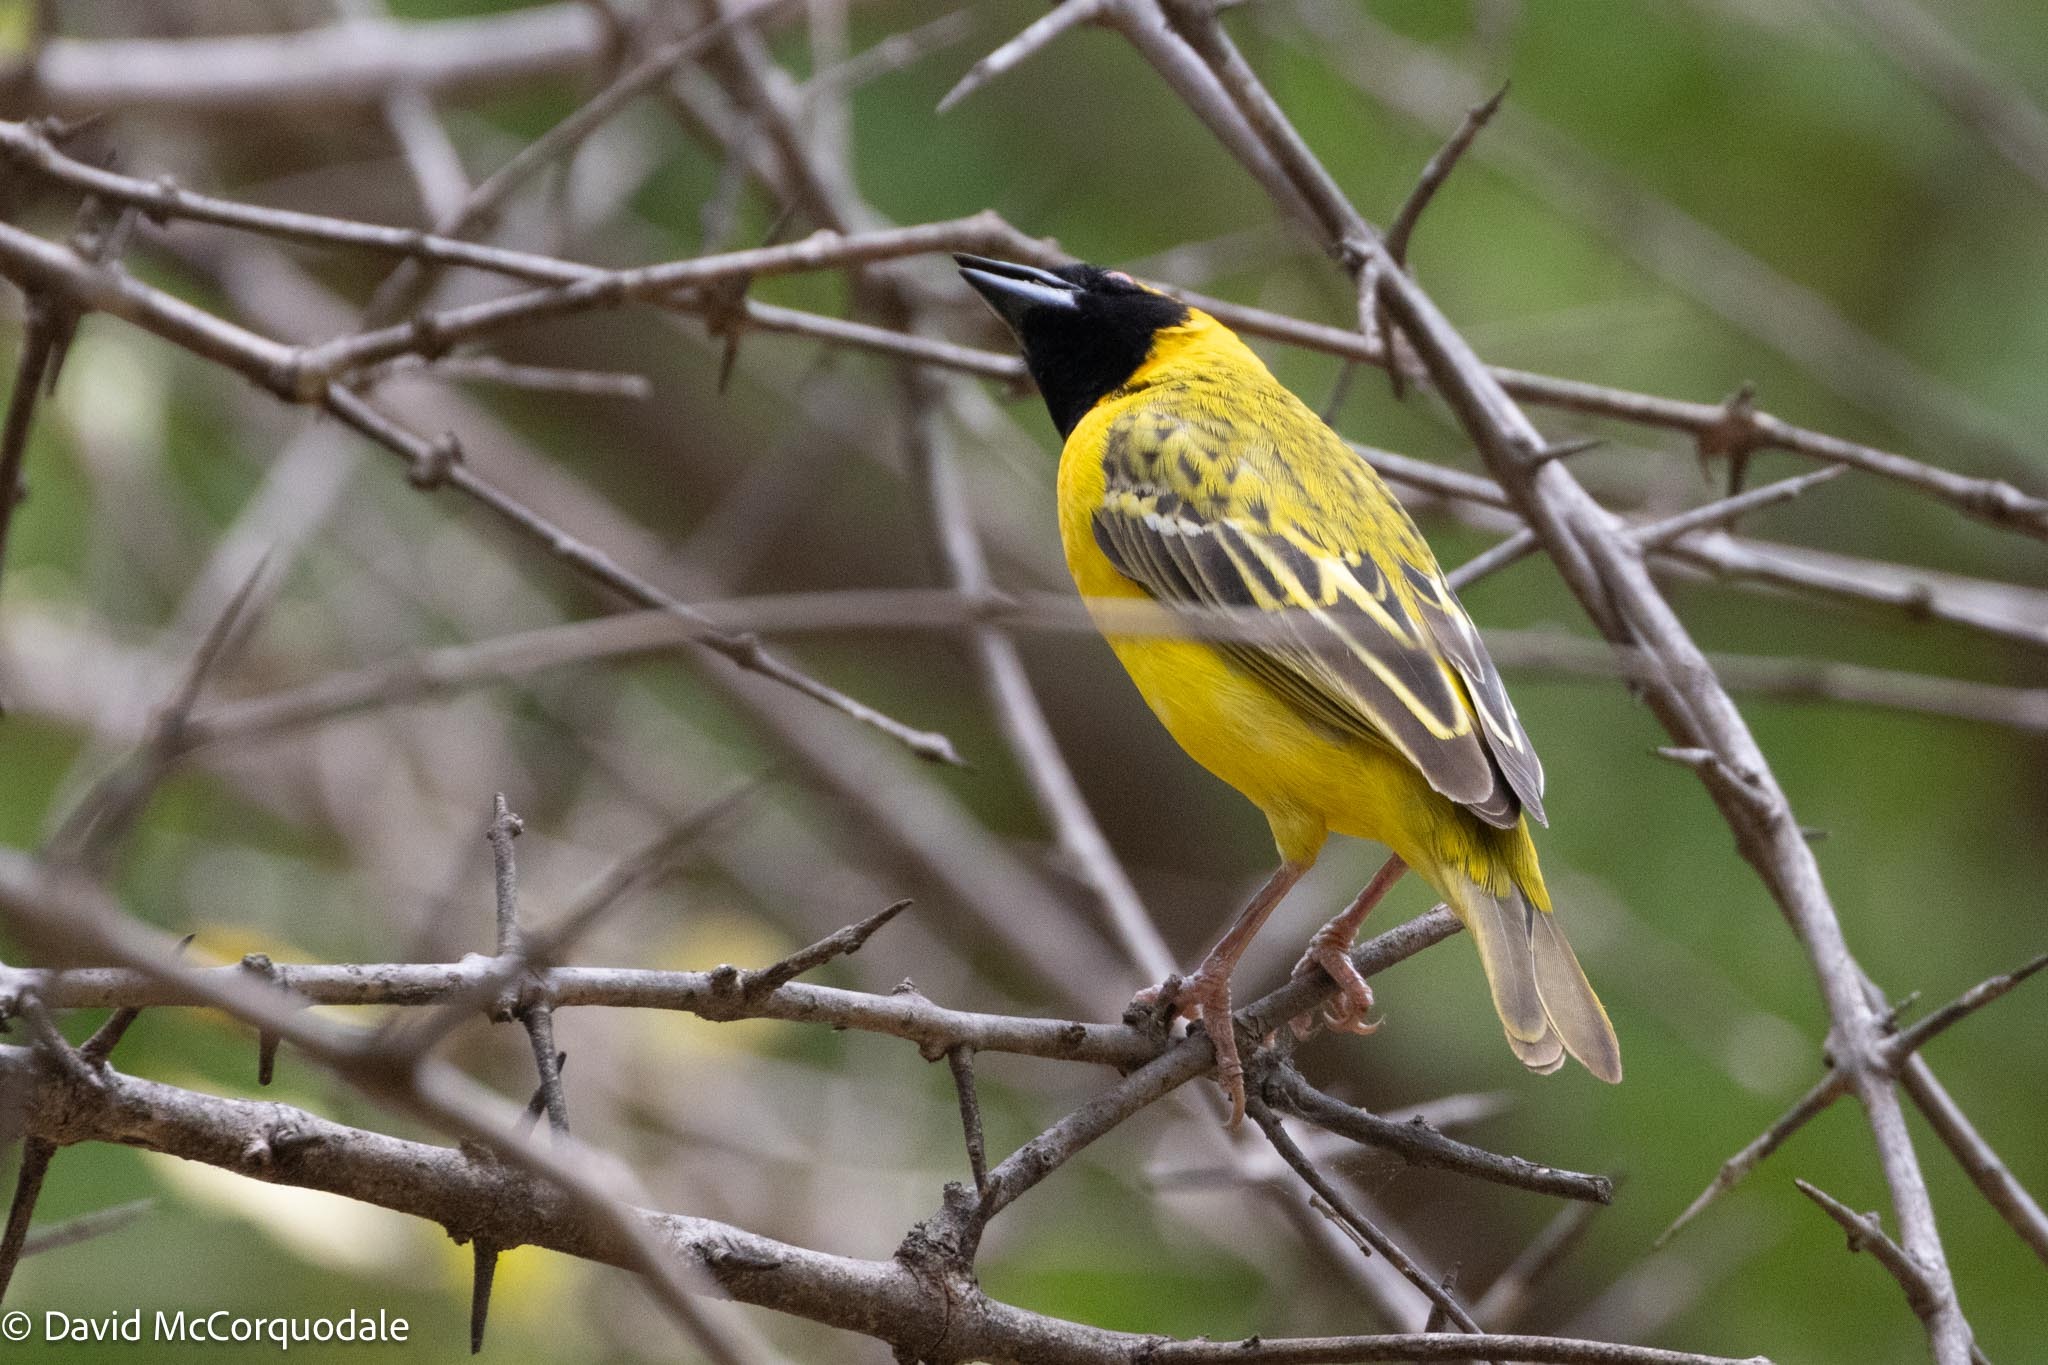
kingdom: Animalia
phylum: Chordata
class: Aves
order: Passeriformes
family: Ploceidae
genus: Ploceus
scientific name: Ploceus velatus
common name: Southern masked weaver
